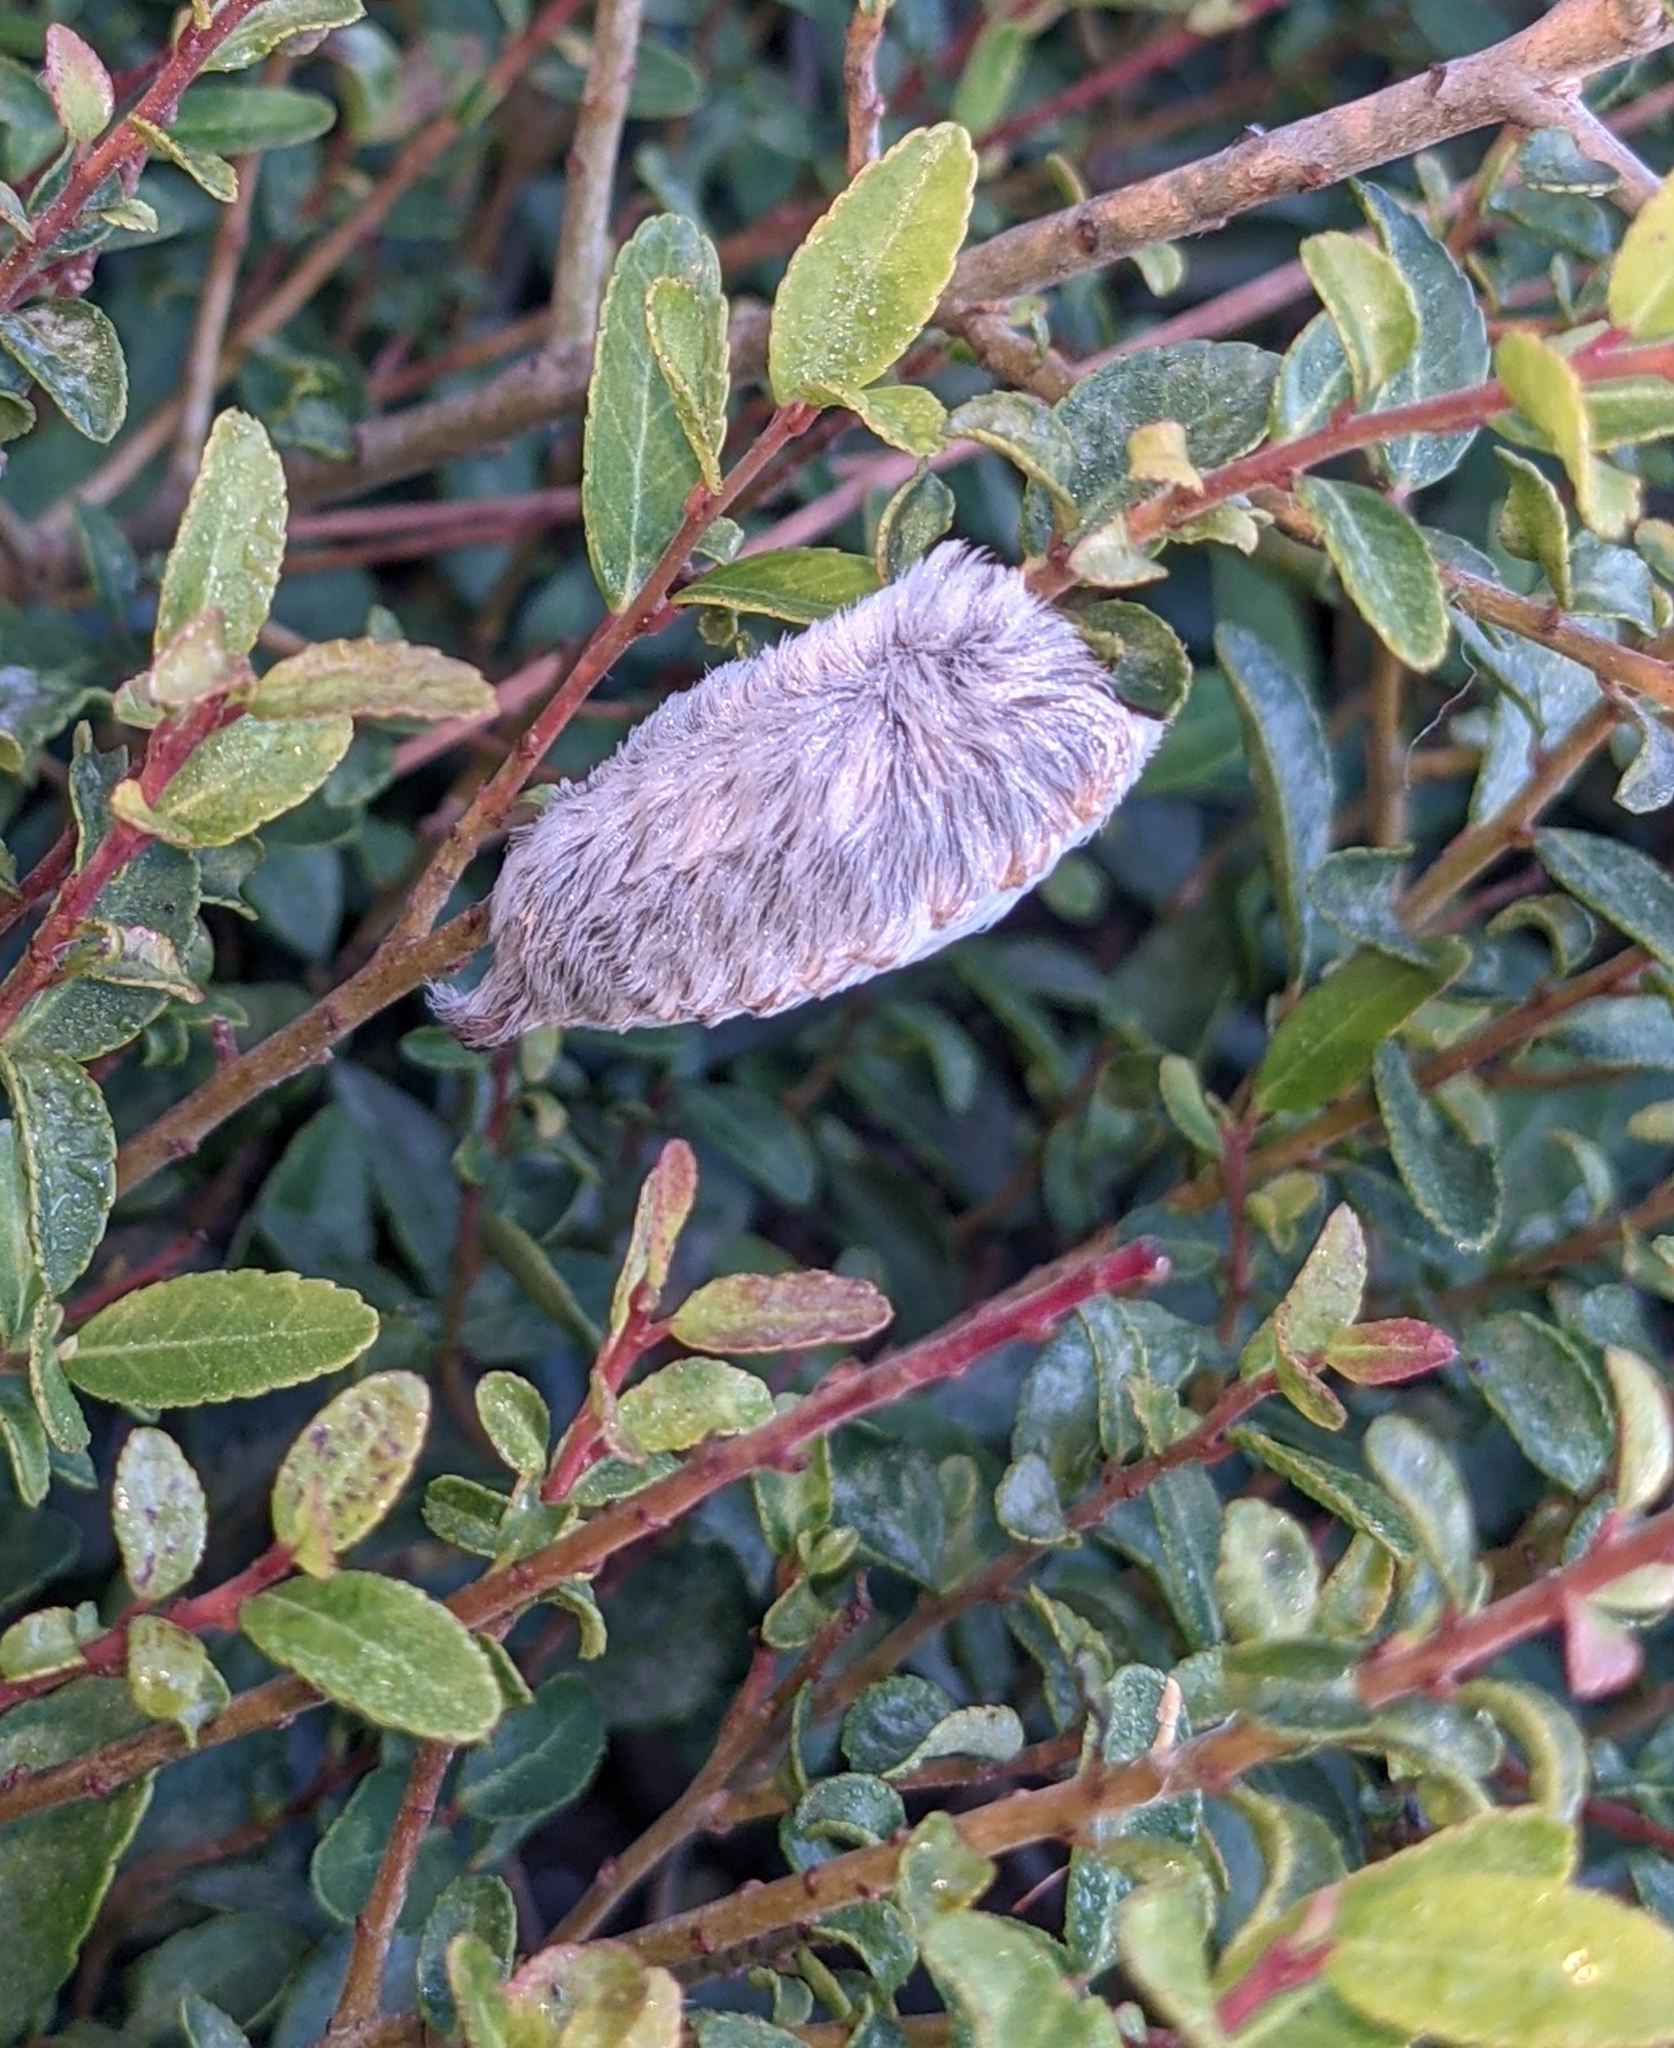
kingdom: Animalia
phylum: Arthropoda
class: Insecta
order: Lepidoptera
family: Megalopygidae
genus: Megalopyge
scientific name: Megalopyge opercularis
